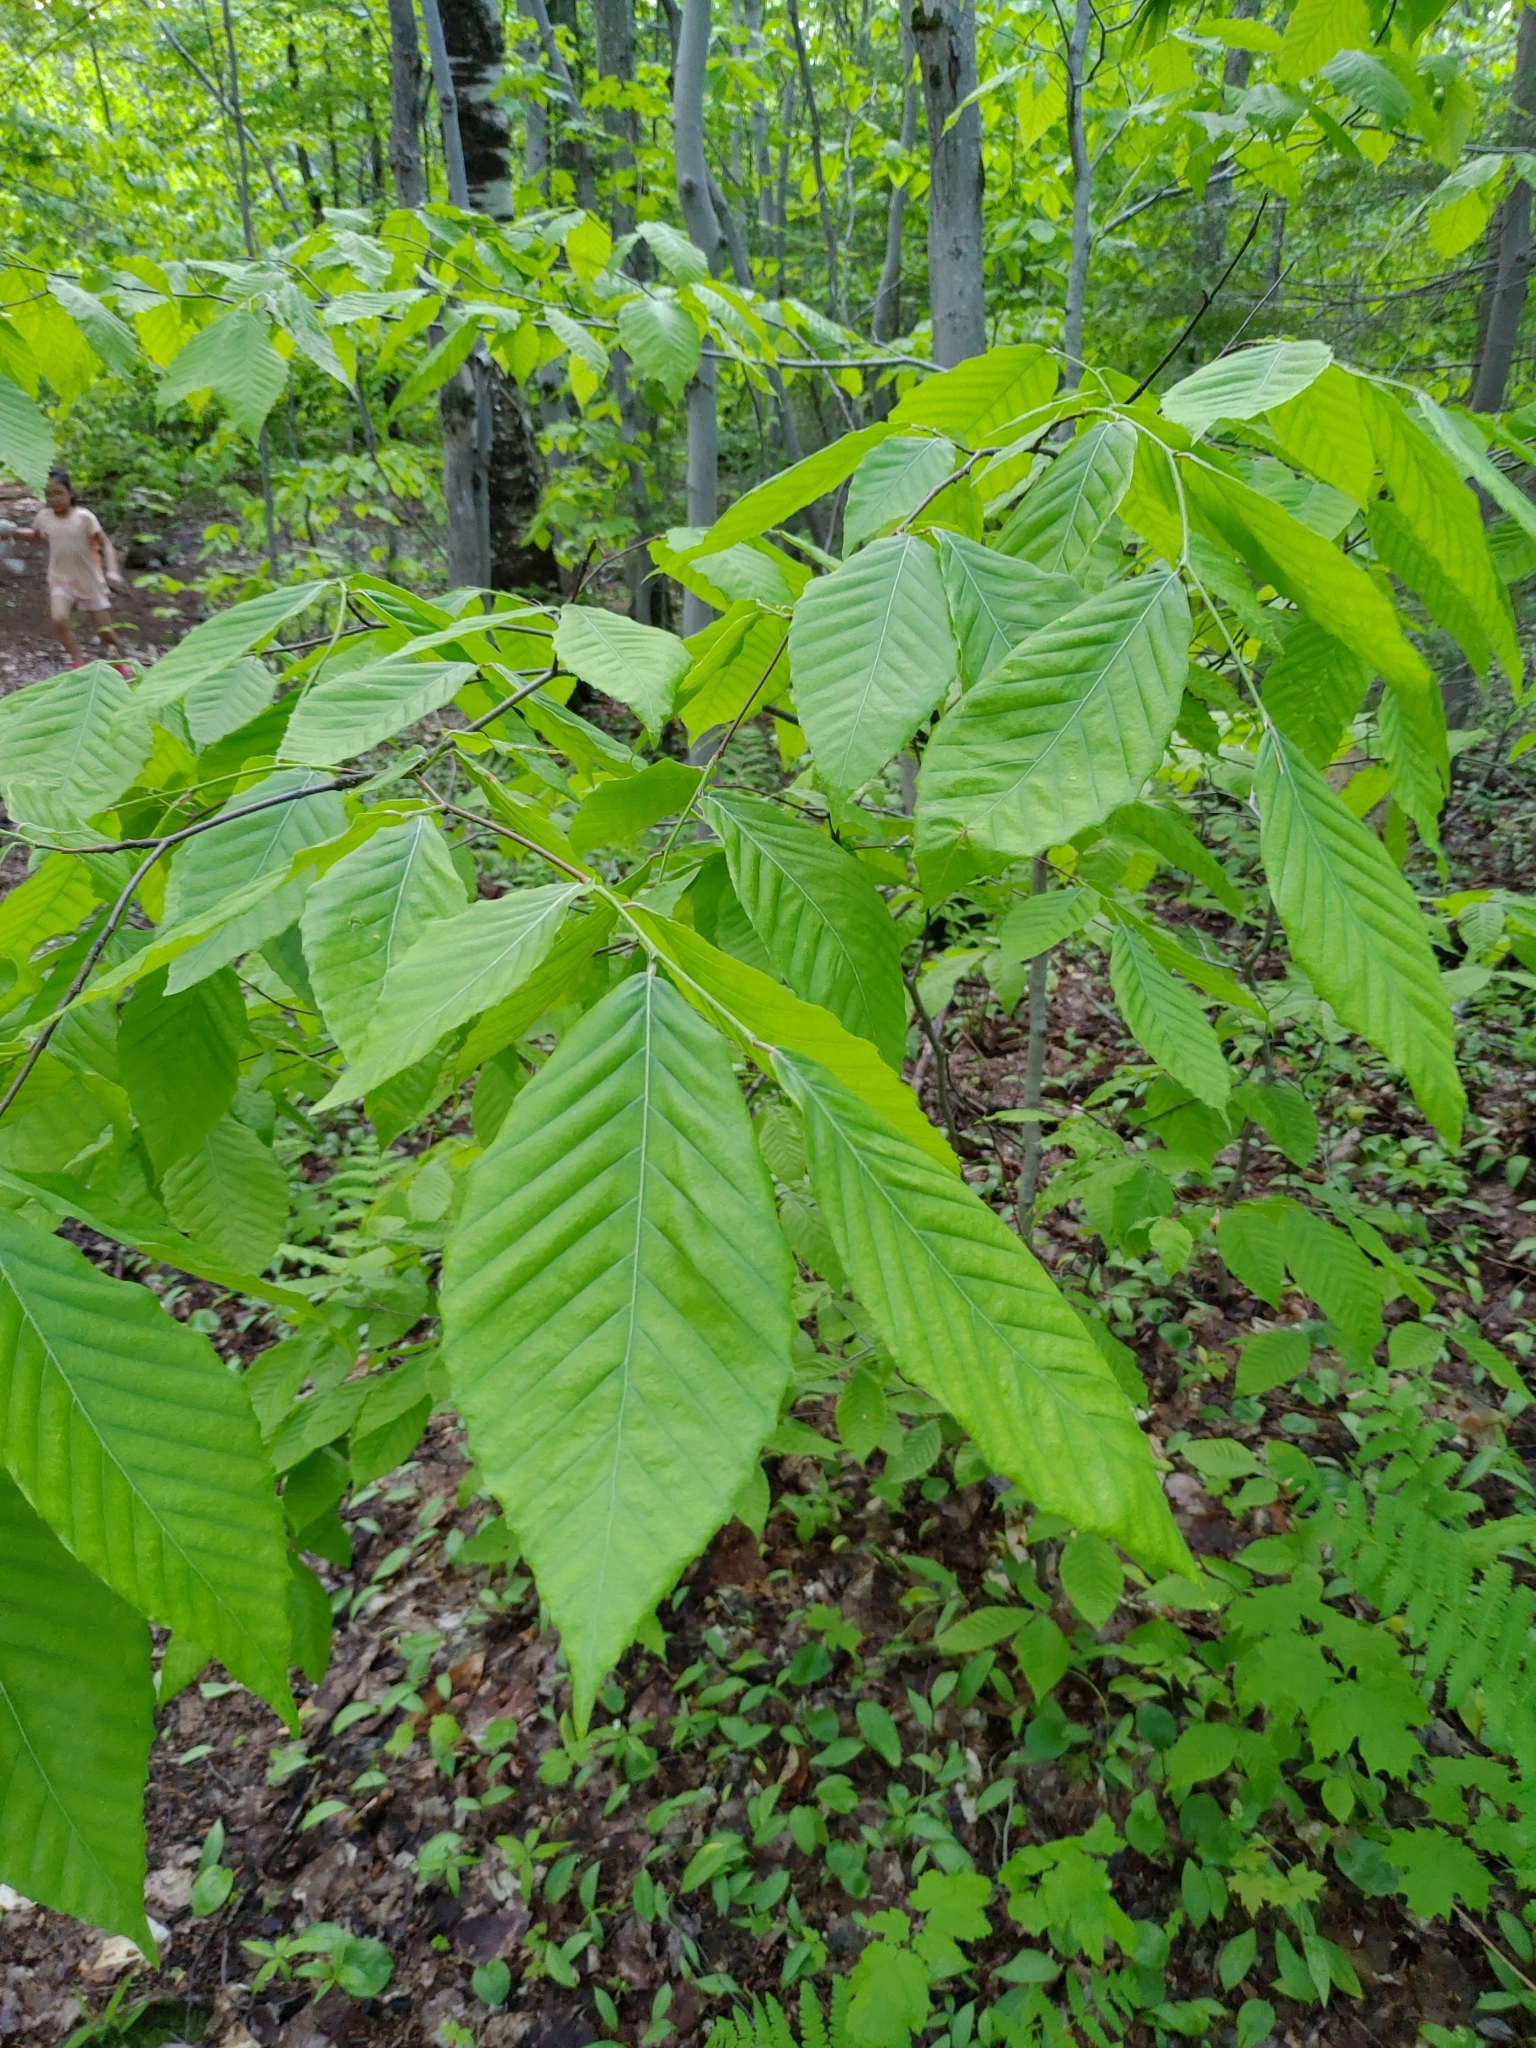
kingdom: Plantae
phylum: Tracheophyta
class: Magnoliopsida
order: Fagales
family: Fagaceae
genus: Fagus
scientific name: Fagus grandifolia
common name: American beech
